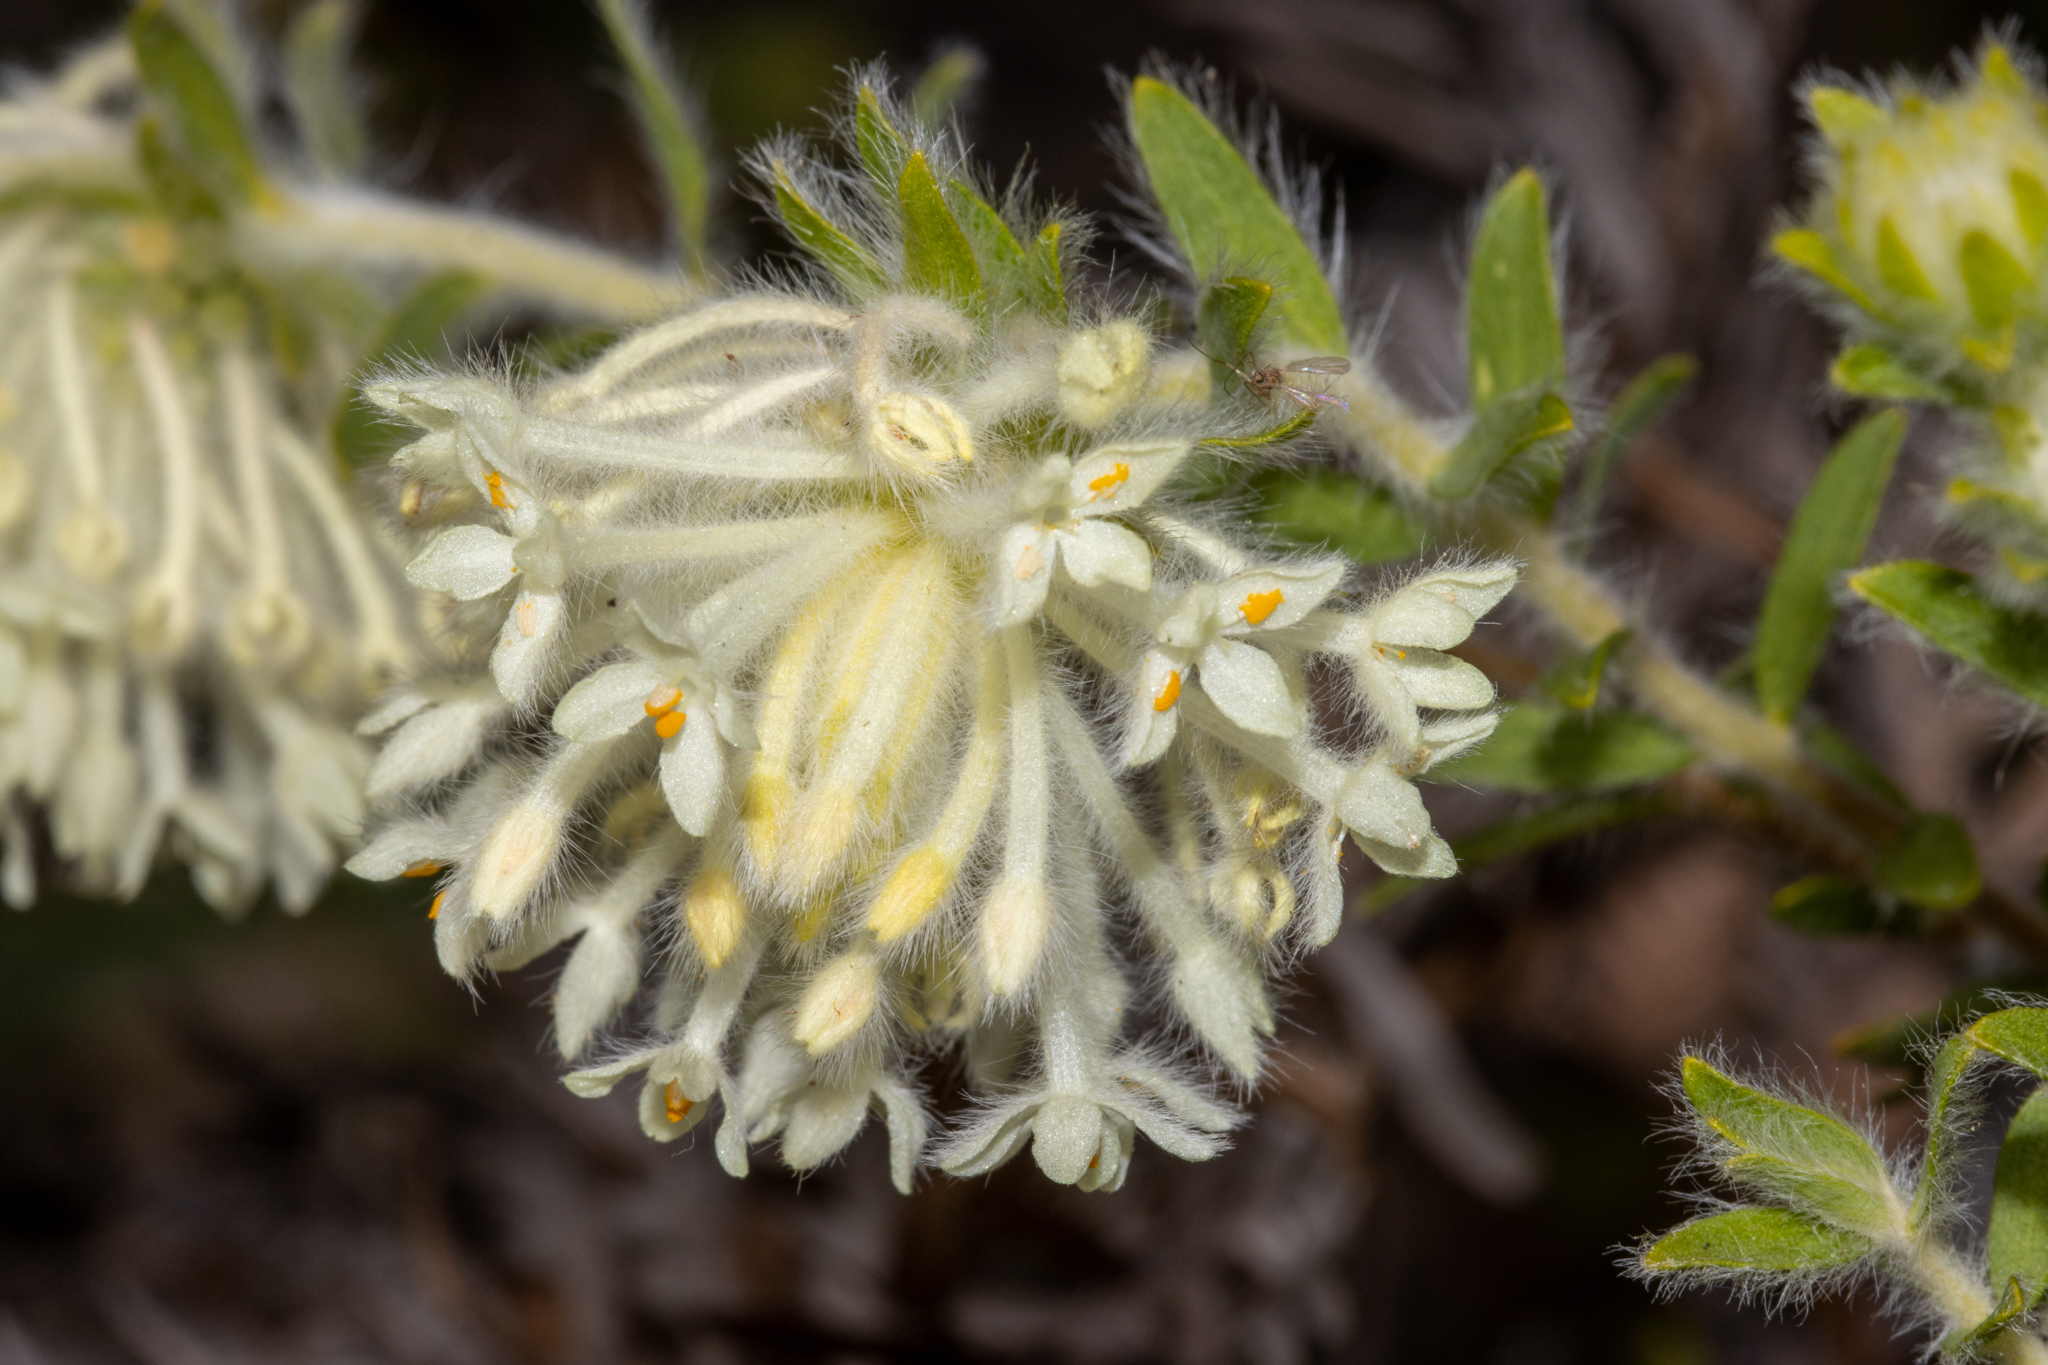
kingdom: Plantae
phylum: Tracheophyta
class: Magnoliopsida
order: Malvales
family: Thymelaeaceae
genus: Pimelea
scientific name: Pimelea octophylla
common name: Woolly riceflower
